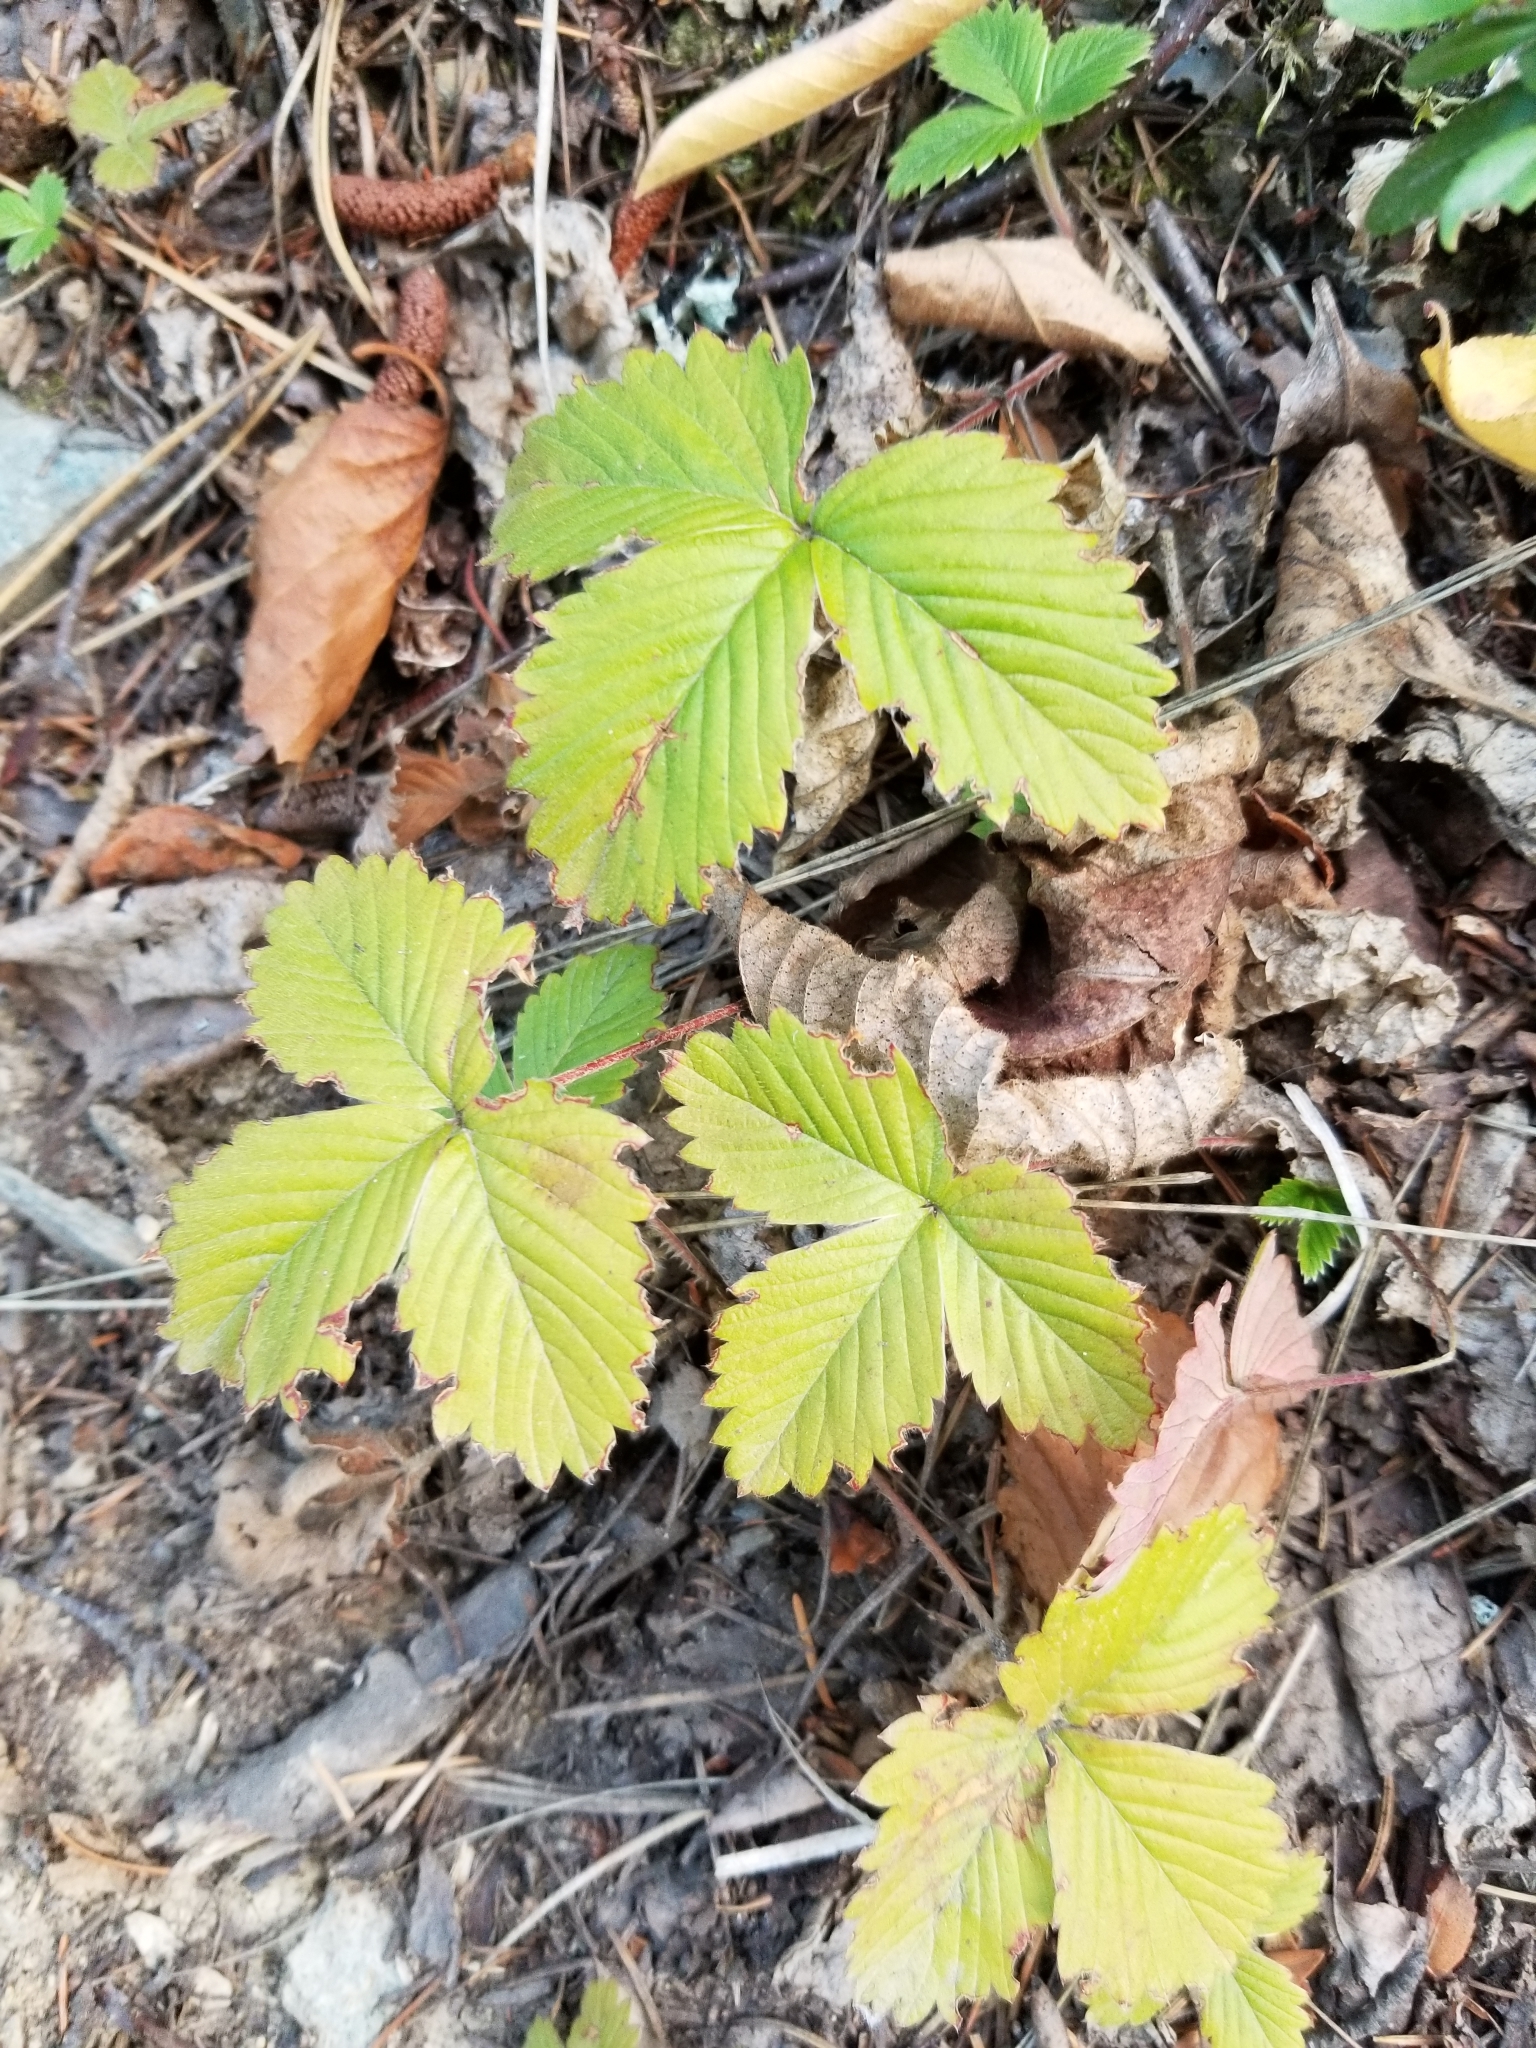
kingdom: Plantae
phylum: Tracheophyta
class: Magnoliopsida
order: Rosales
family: Rosaceae
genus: Fragaria
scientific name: Fragaria vesca
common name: Wild strawberry
